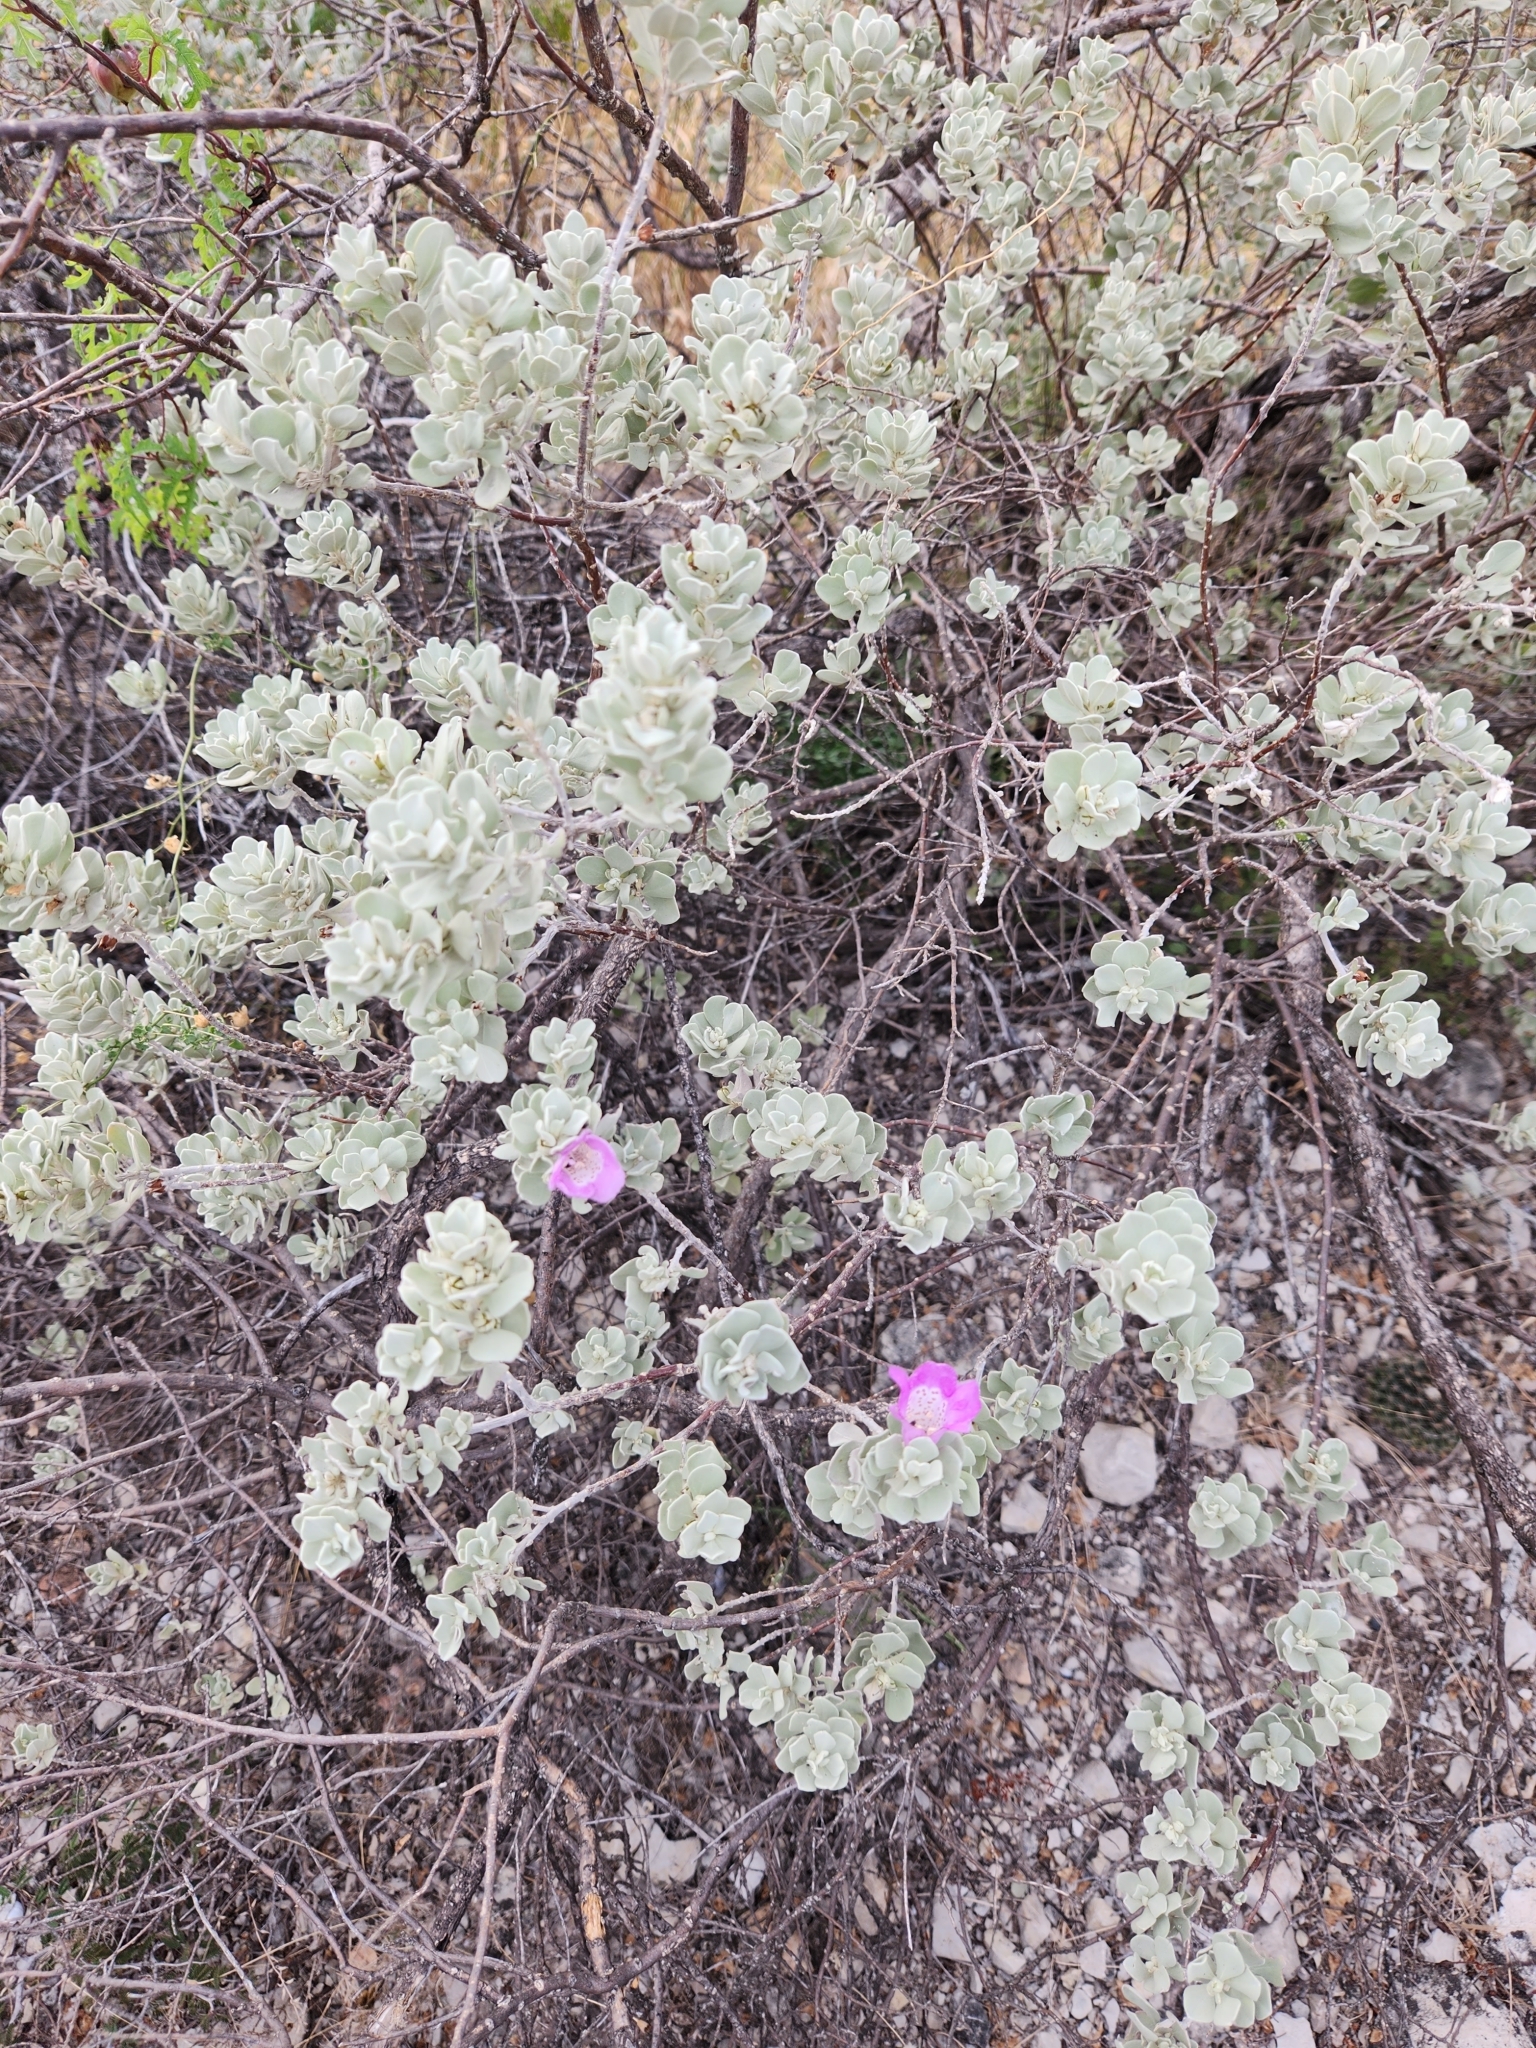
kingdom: Plantae
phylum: Tracheophyta
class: Magnoliopsida
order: Lamiales
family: Scrophulariaceae
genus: Leucophyllum
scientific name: Leucophyllum frutescens
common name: Texas silverleaf
